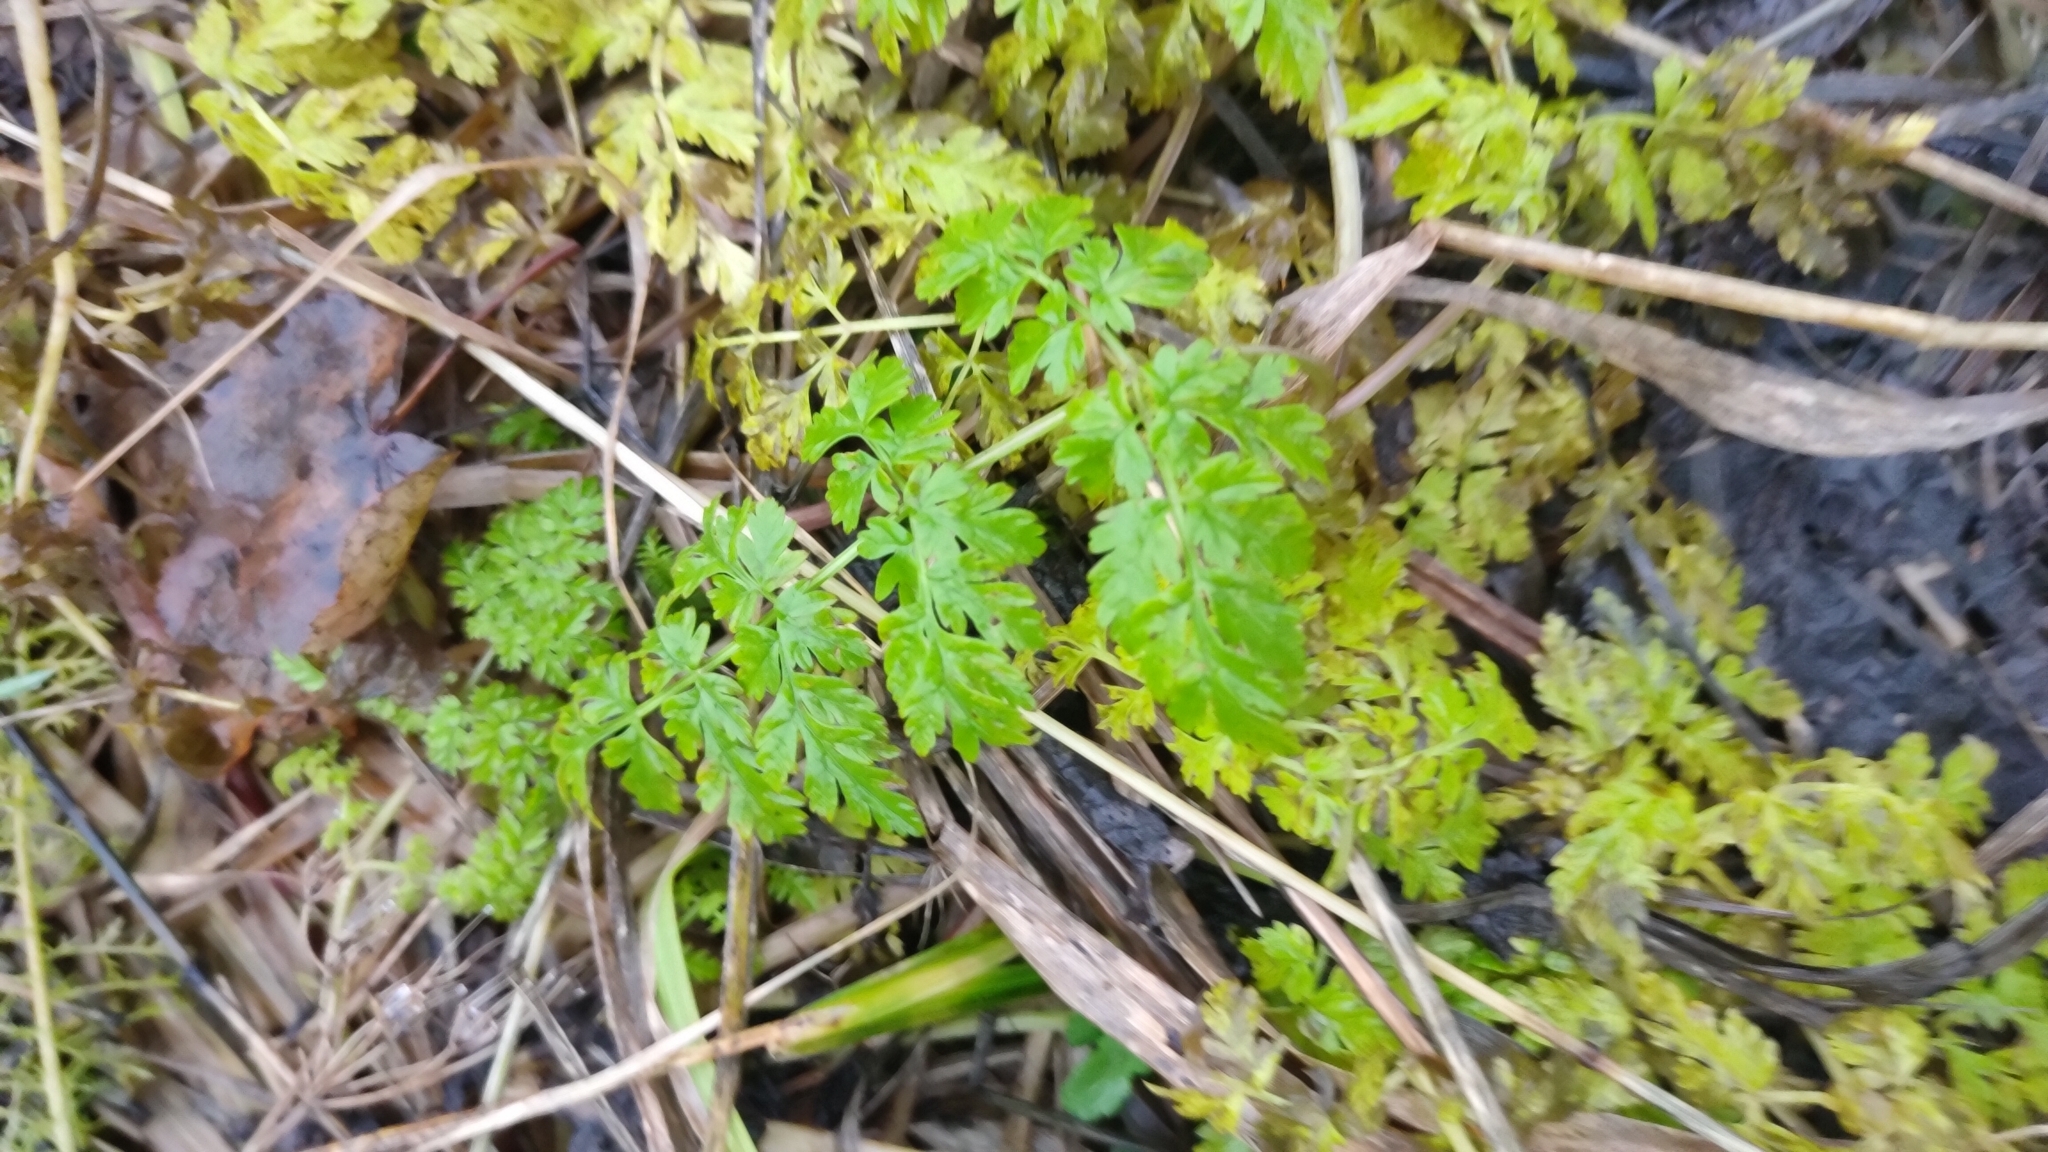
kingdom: Plantae
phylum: Tracheophyta
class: Magnoliopsida
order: Apiales
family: Apiaceae
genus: Anthriscus
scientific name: Anthriscus sylvestris
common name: Cow parsley
